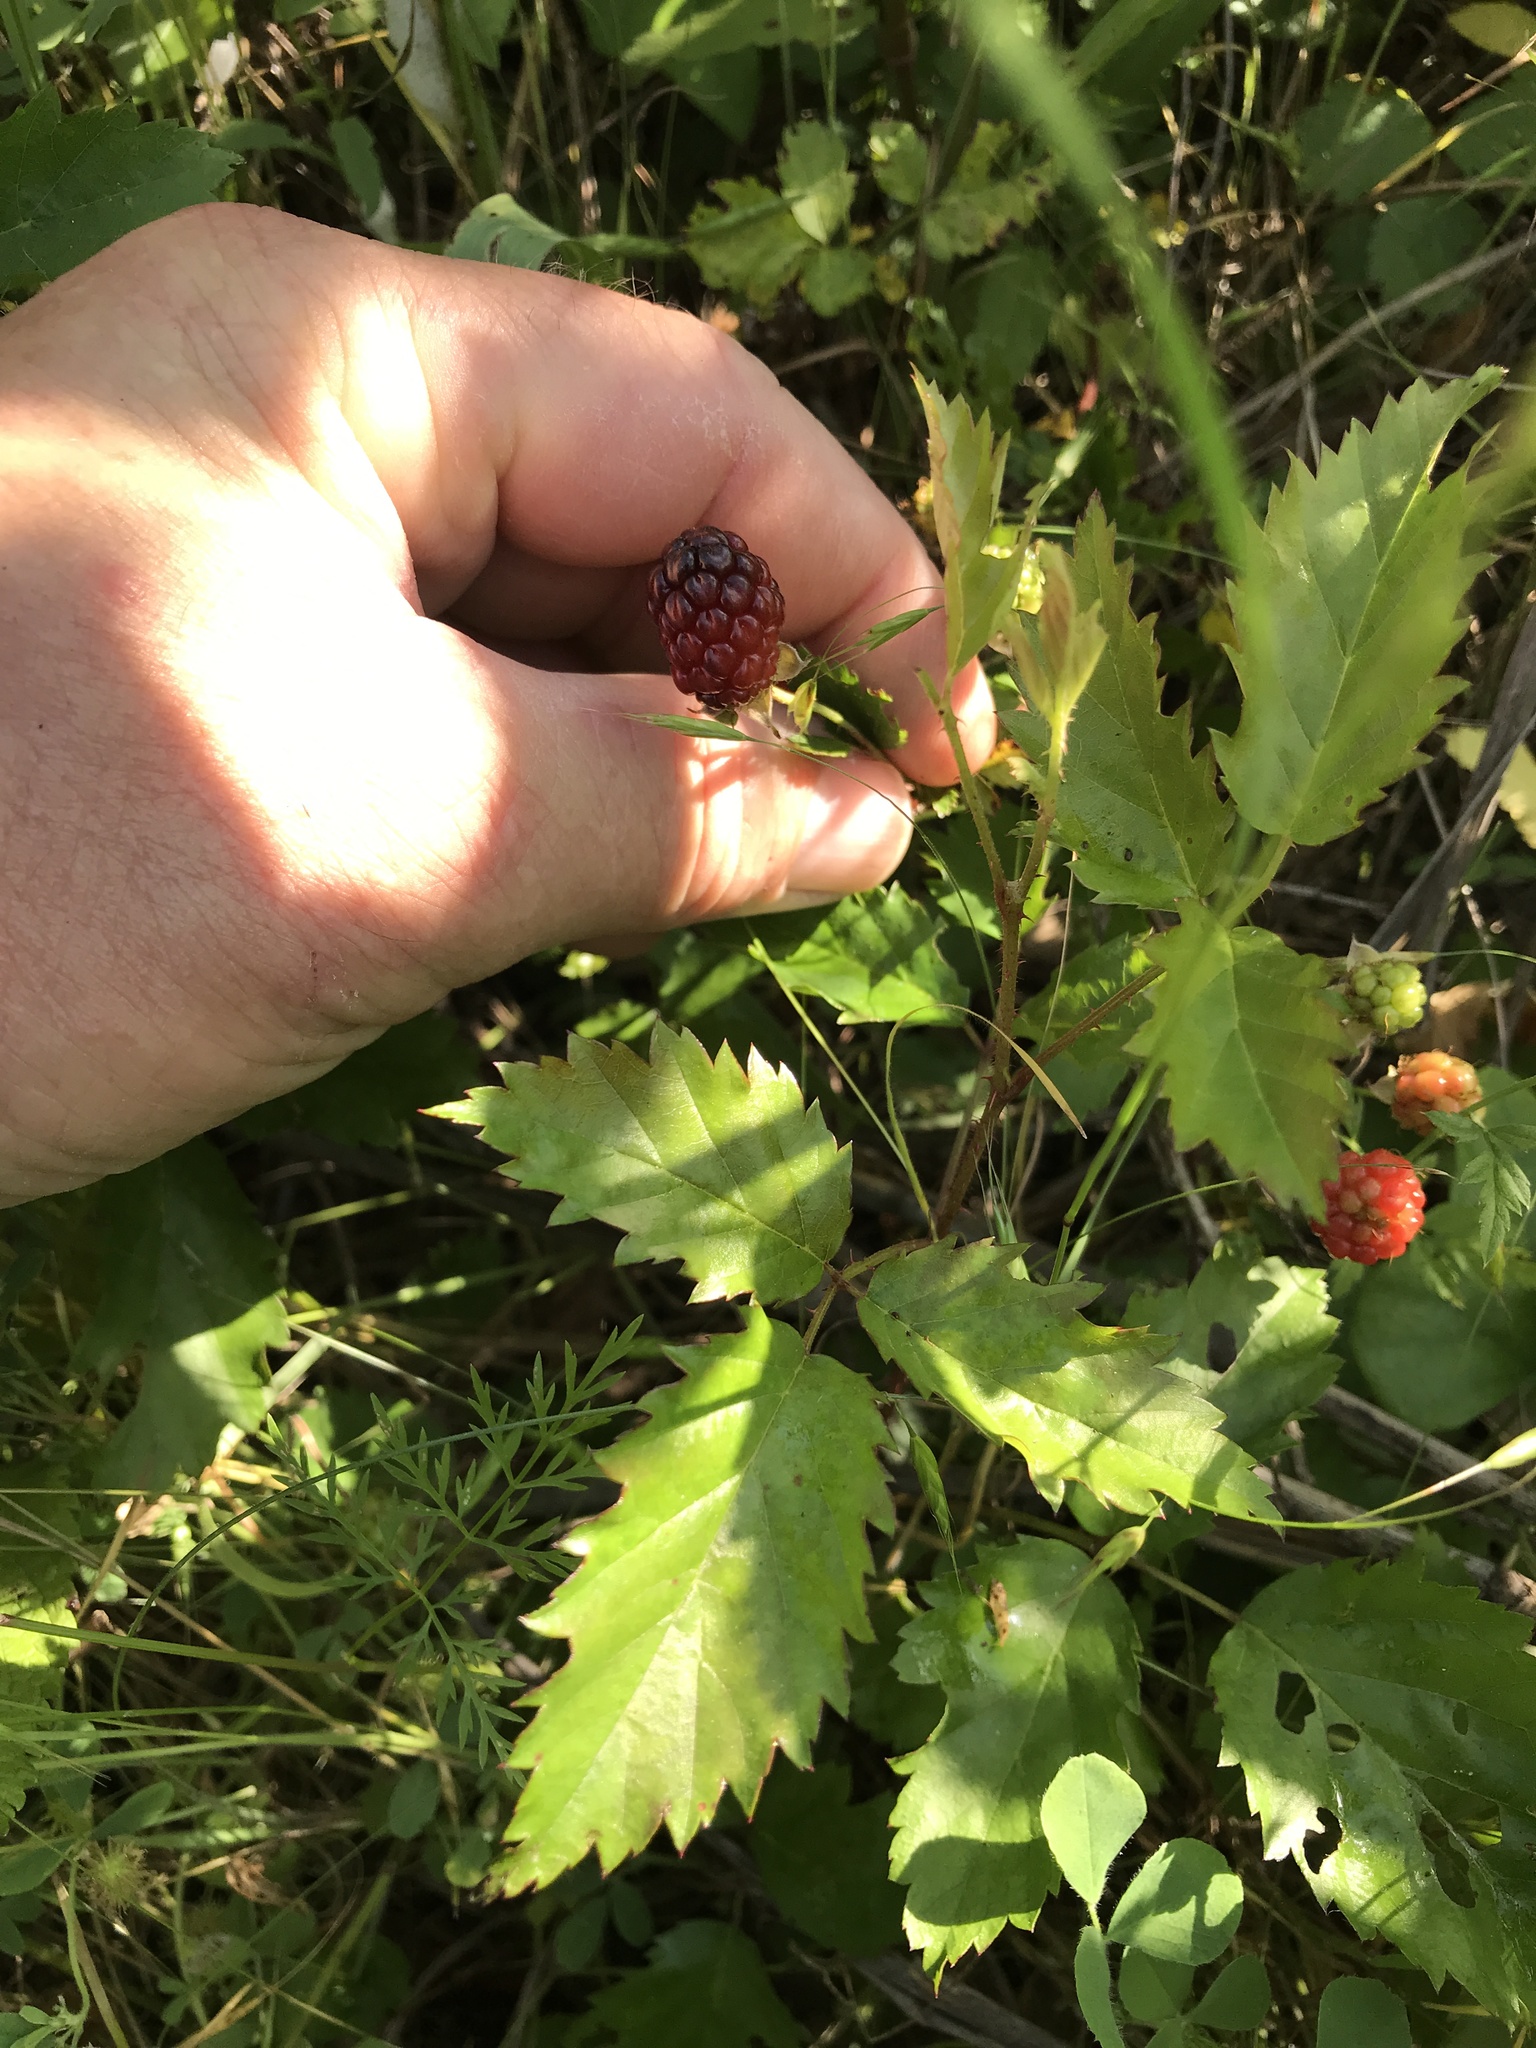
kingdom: Plantae
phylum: Tracheophyta
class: Magnoliopsida
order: Rosales
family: Rosaceae
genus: Rubus
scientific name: Rubus trivialis
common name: Southern dewberry
